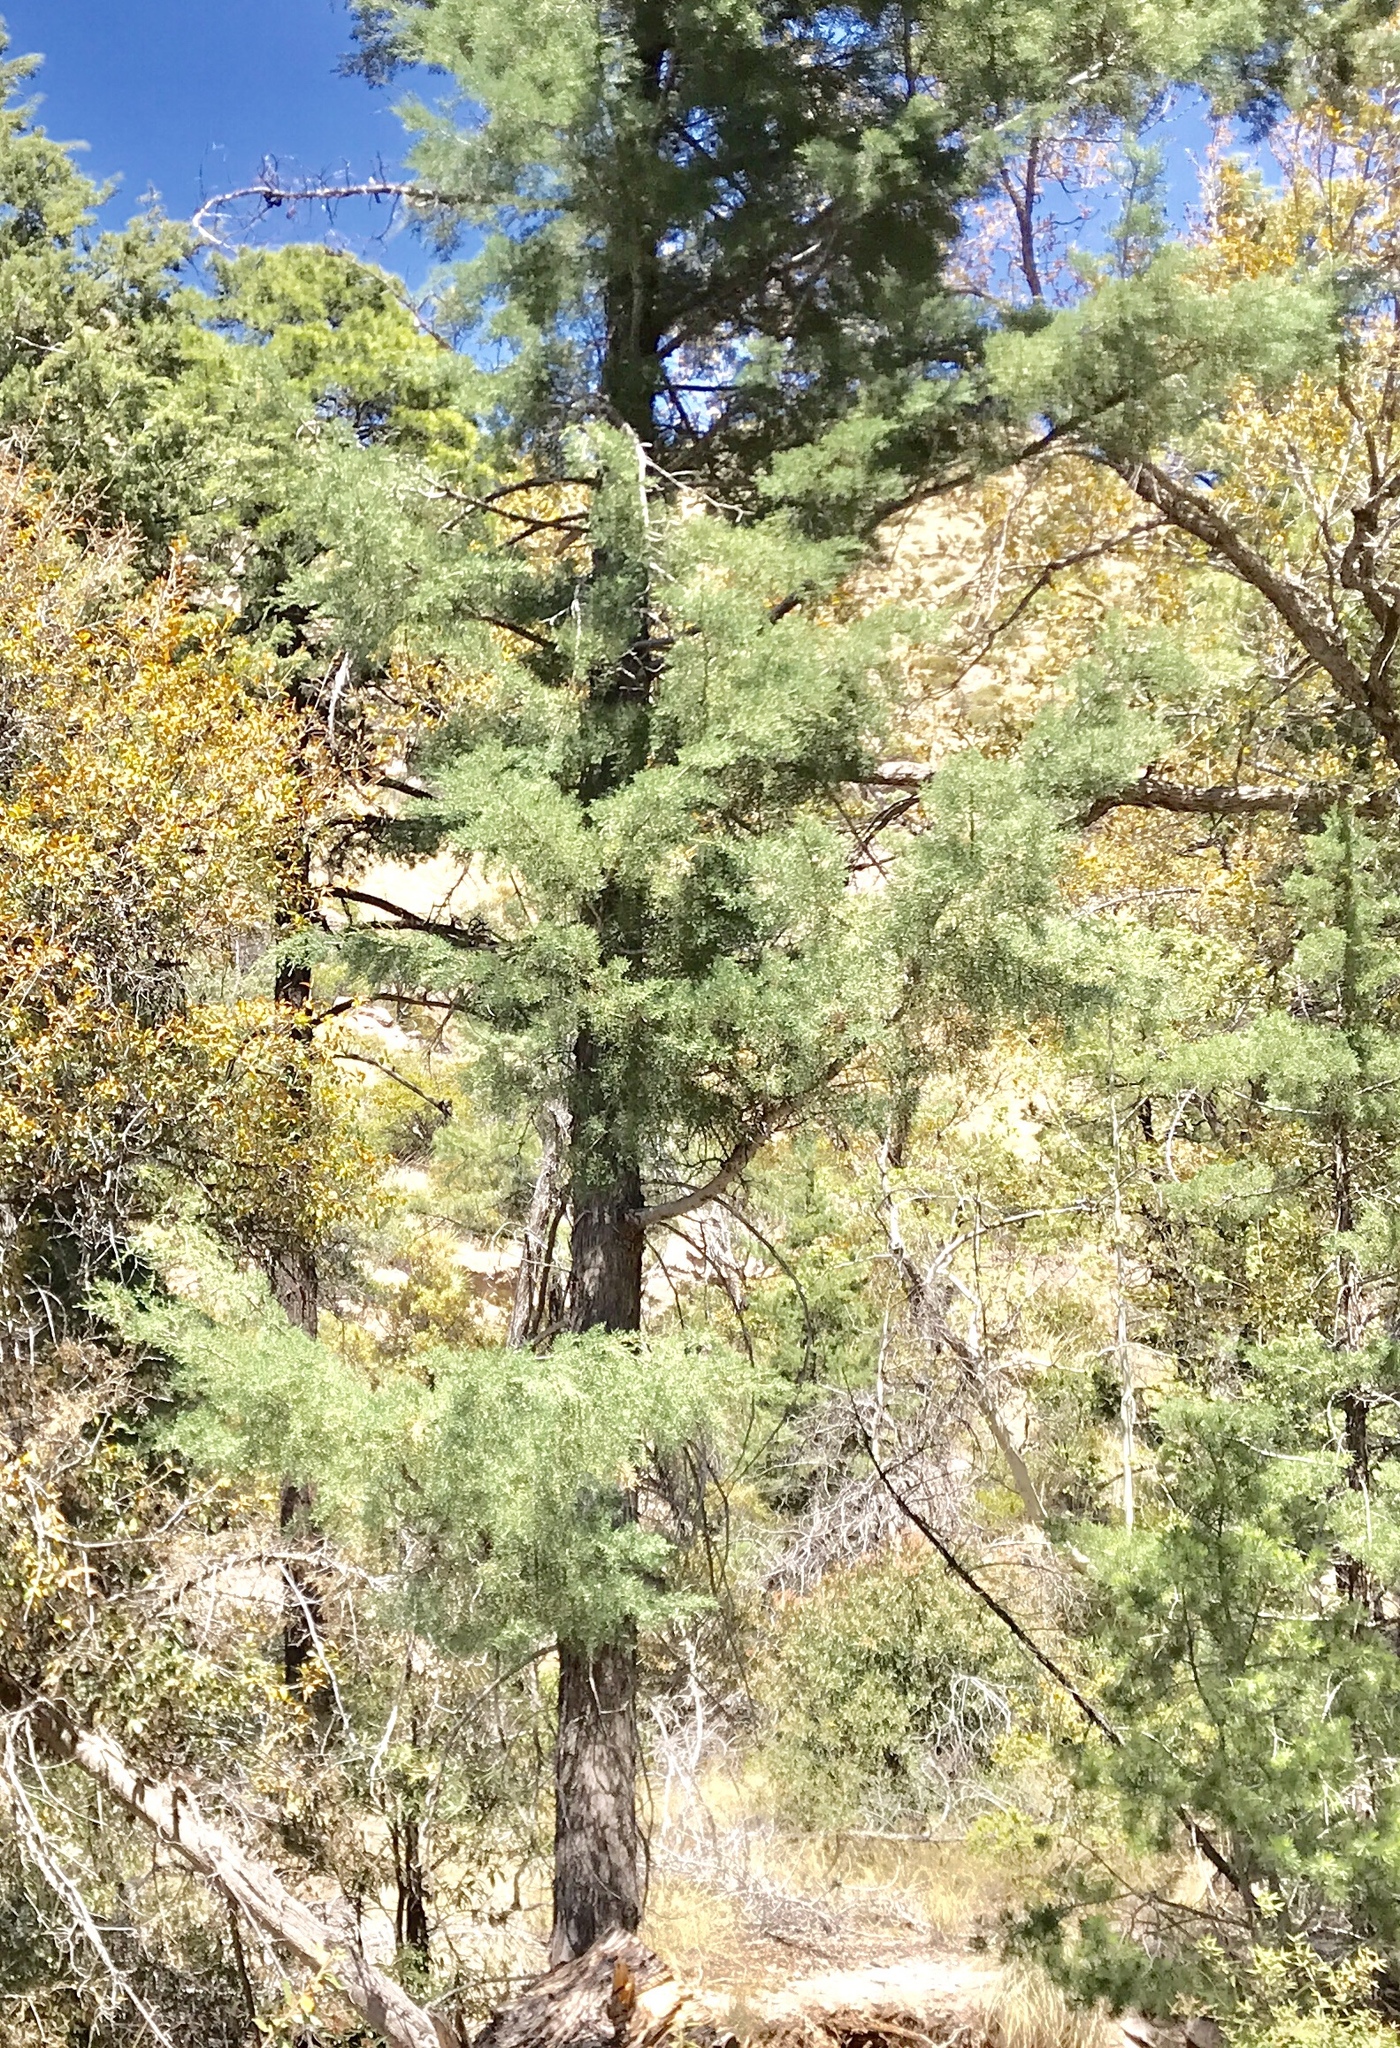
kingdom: Plantae
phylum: Tracheophyta
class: Pinopsida
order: Pinales
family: Cupressaceae
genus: Cupressus
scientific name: Cupressus arizonica
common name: Arizona cypress
